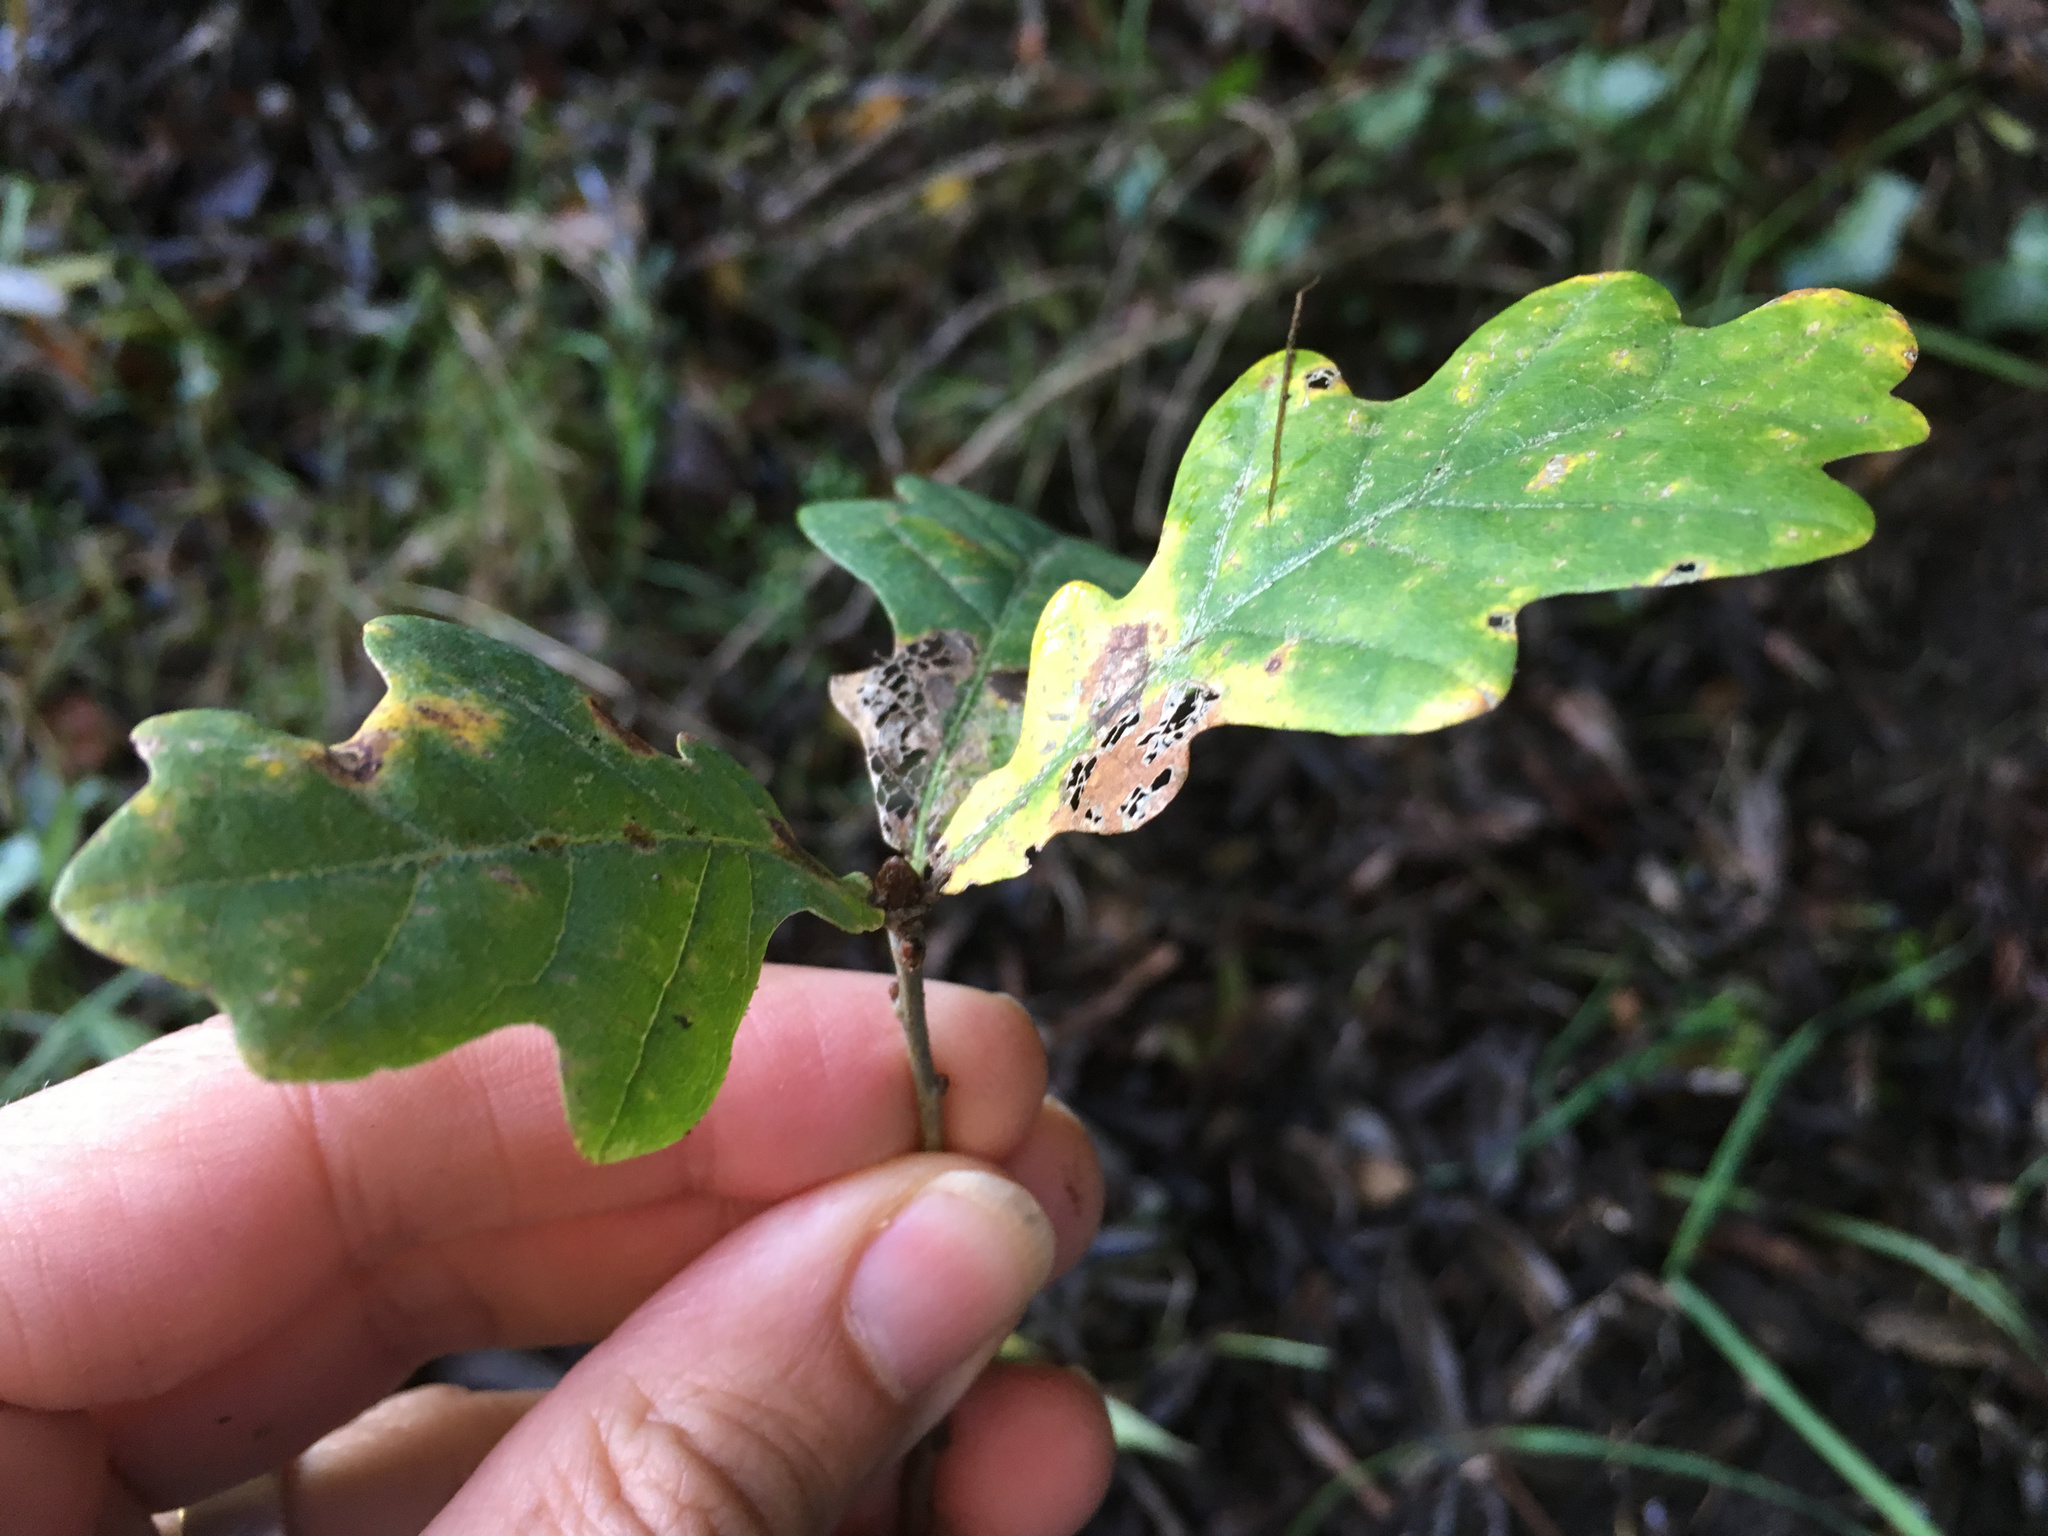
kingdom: Plantae
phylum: Tracheophyta
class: Magnoliopsida
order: Fagales
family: Fagaceae
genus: Quercus
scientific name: Quercus robur
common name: Pedunculate oak
